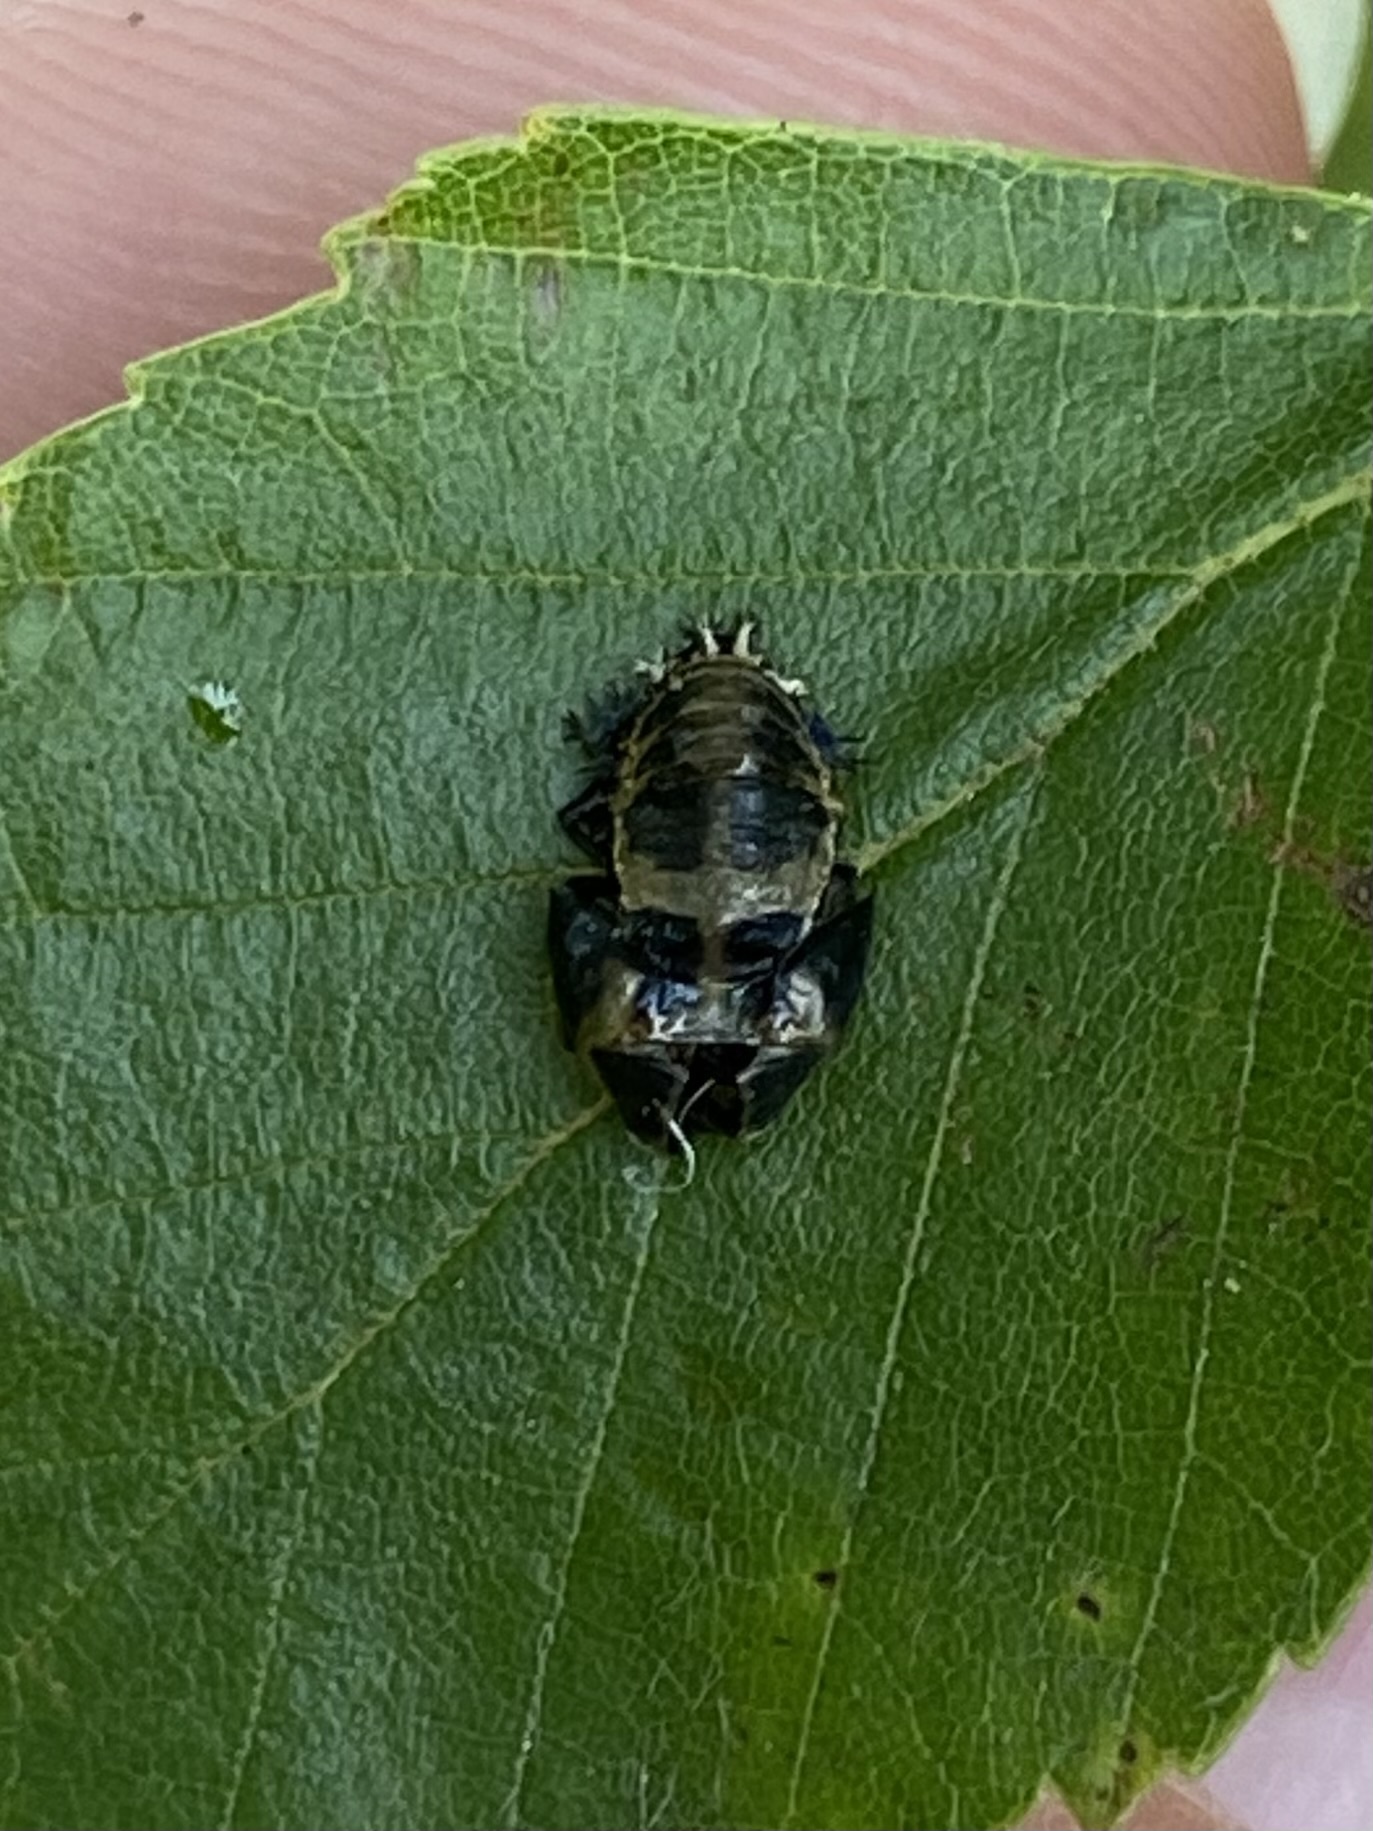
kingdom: Animalia
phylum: Arthropoda
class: Insecta
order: Coleoptera
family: Coccinellidae
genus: Harmonia
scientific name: Harmonia axyridis
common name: Harlequin ladybird
